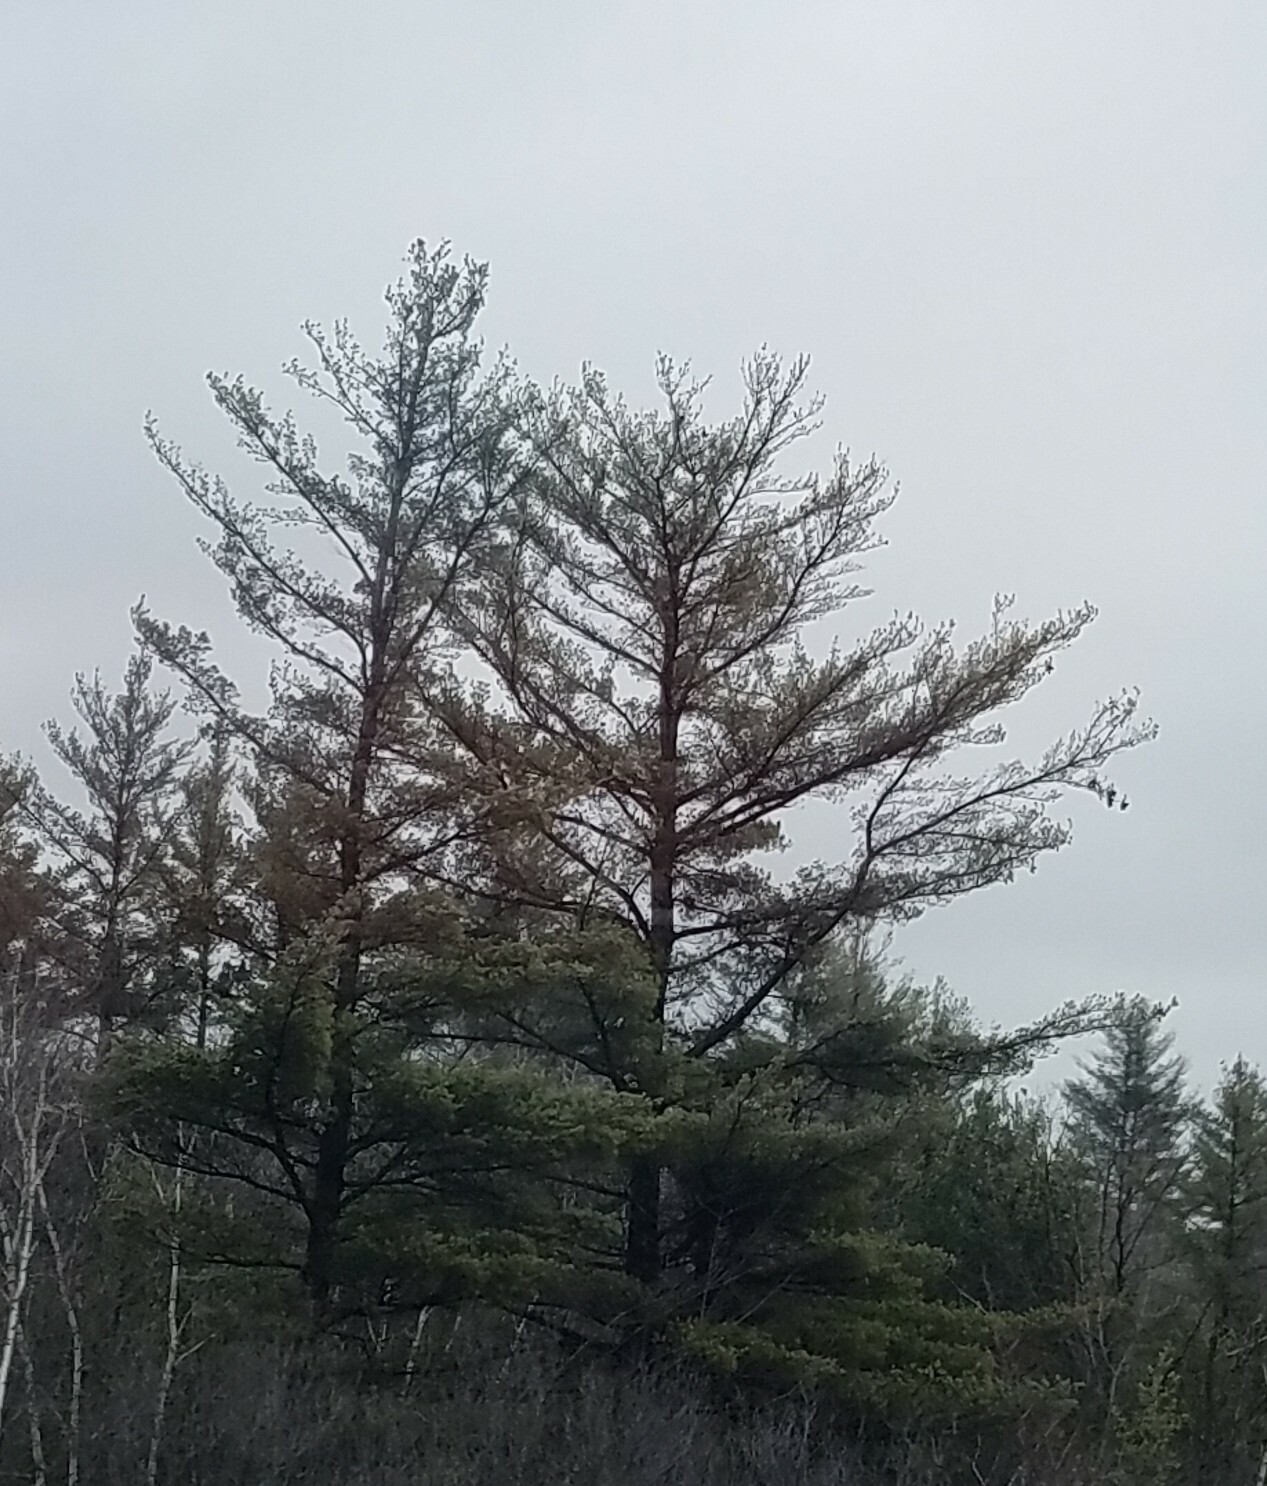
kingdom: Plantae
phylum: Tracheophyta
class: Pinopsida
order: Pinales
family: Pinaceae
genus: Pinus
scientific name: Pinus strobus
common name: Weymouth pine
